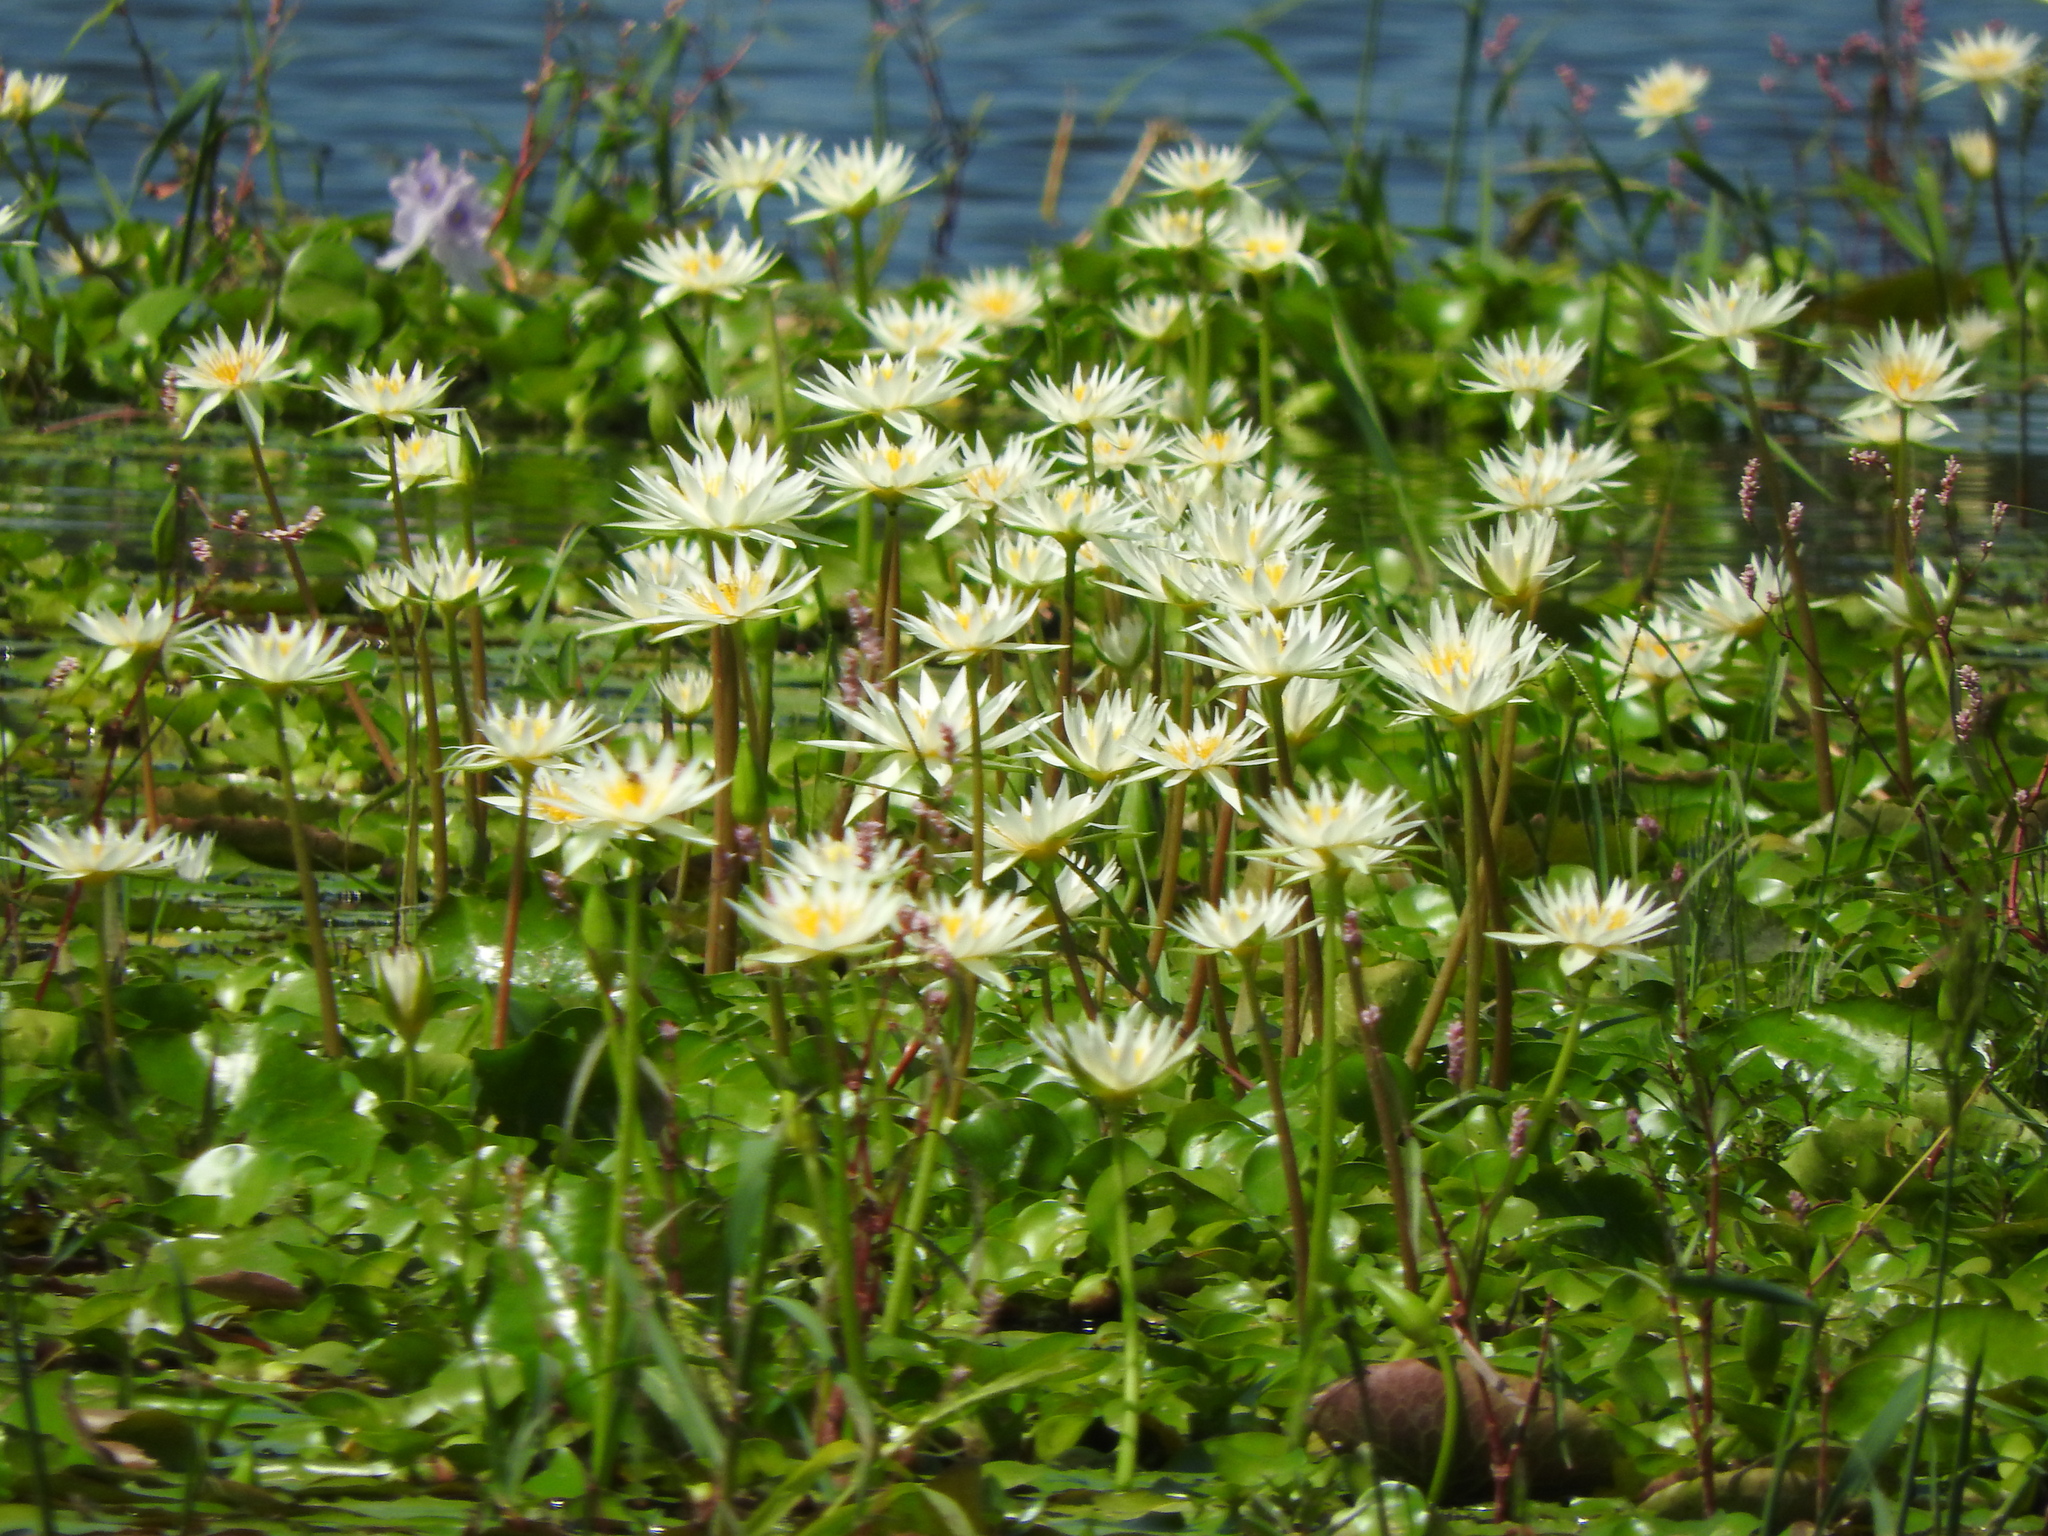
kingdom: Plantae
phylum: Tracheophyta
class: Magnoliopsida
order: Nymphaeales
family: Nymphaeaceae
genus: Nymphaea
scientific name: Nymphaea gracilis
